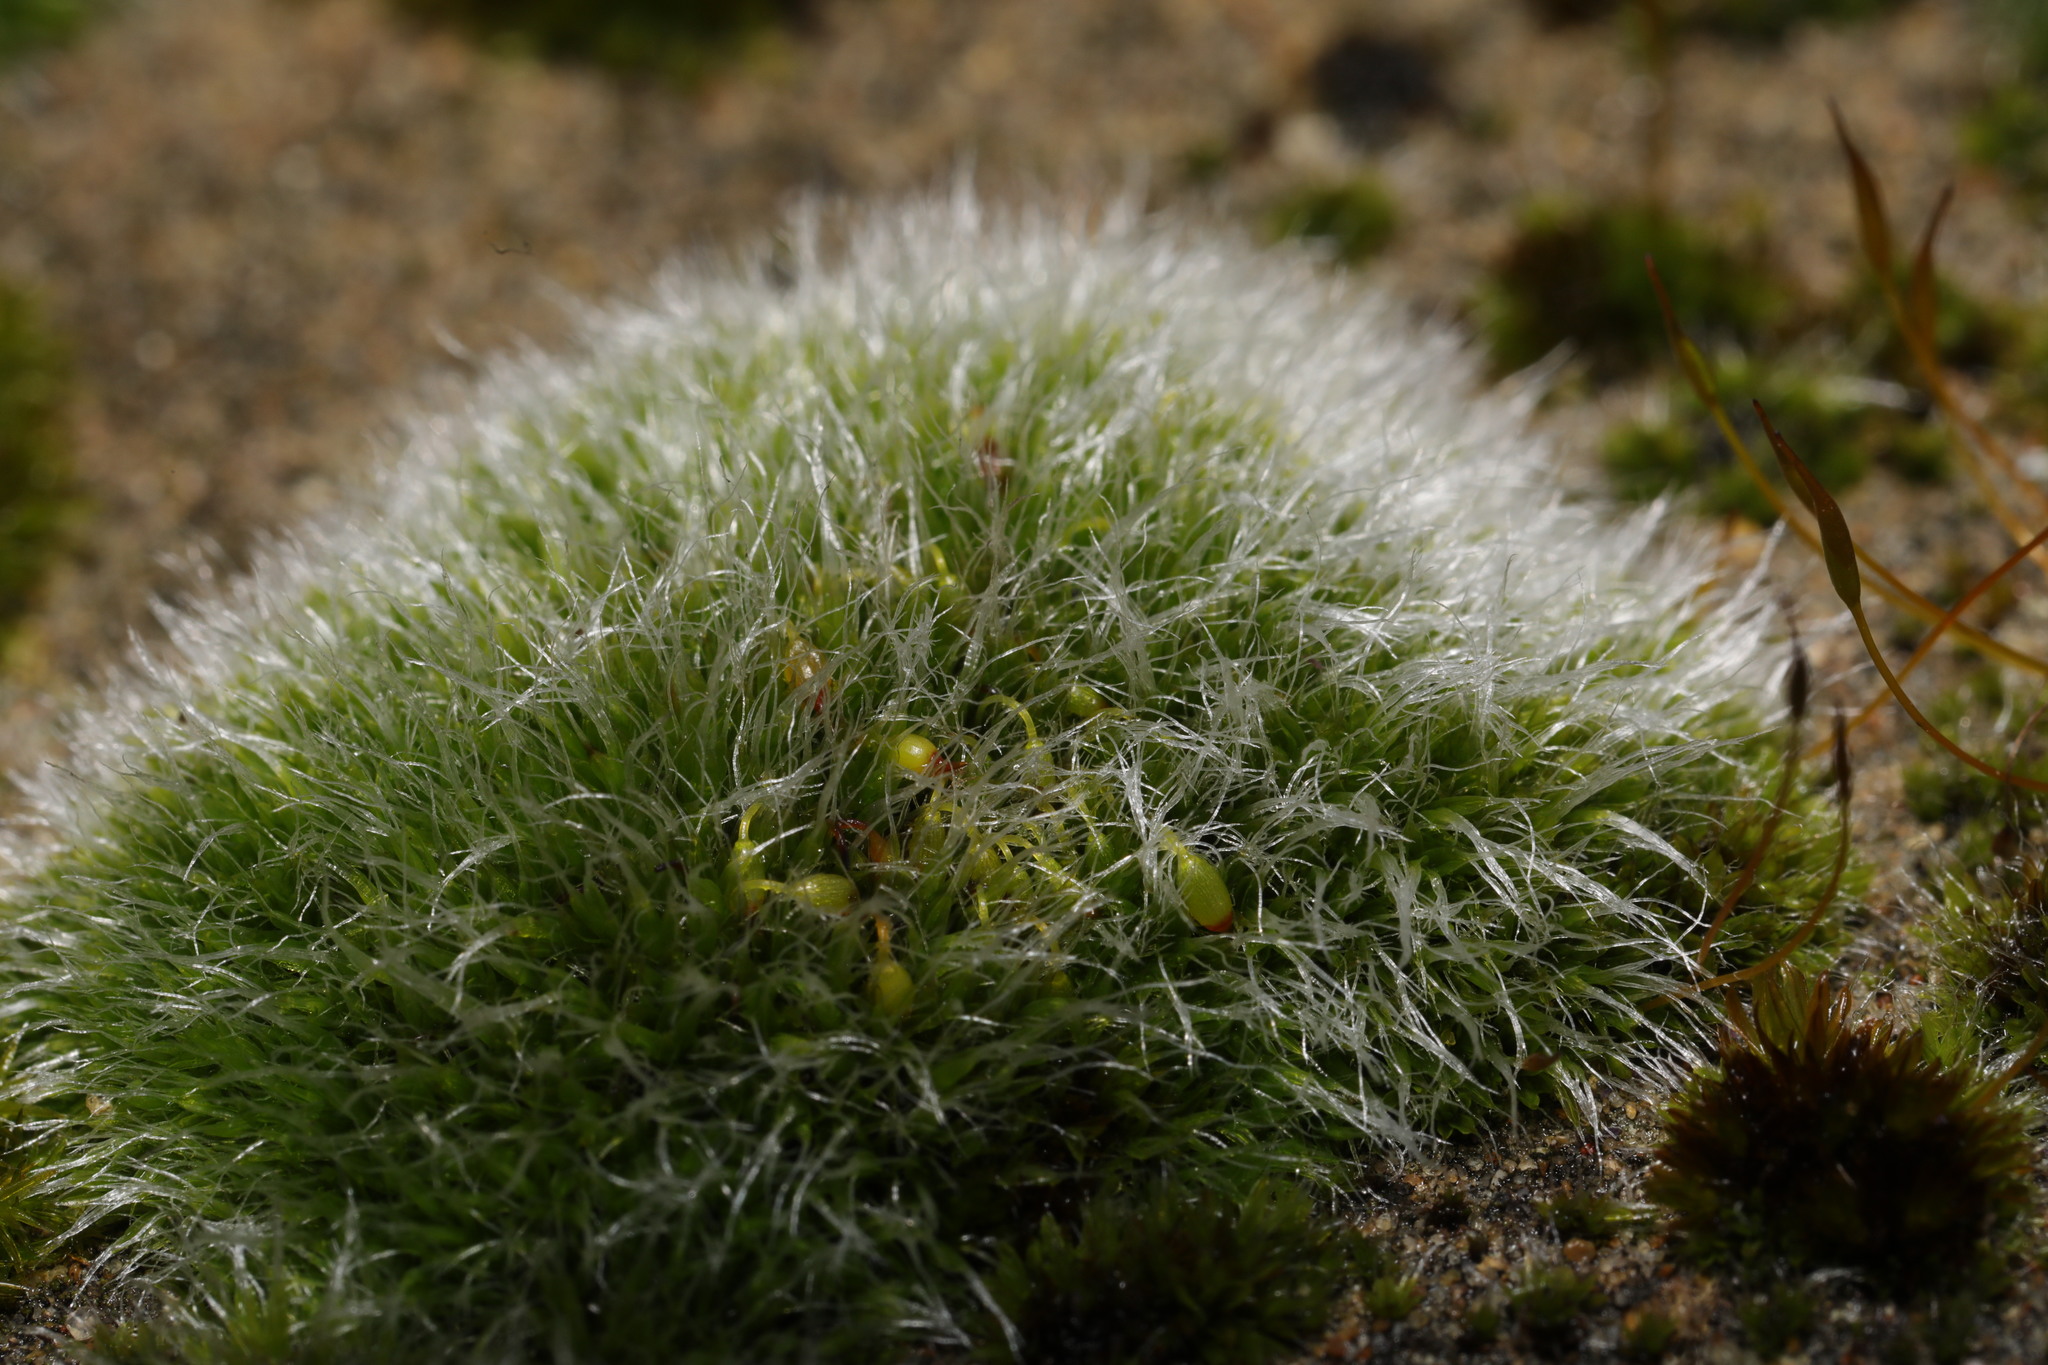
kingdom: Plantae
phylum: Bryophyta
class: Bryopsida
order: Grimmiales
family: Grimmiaceae
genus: Grimmia
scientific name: Grimmia pulvinata
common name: Grey-cushioned grimmia
